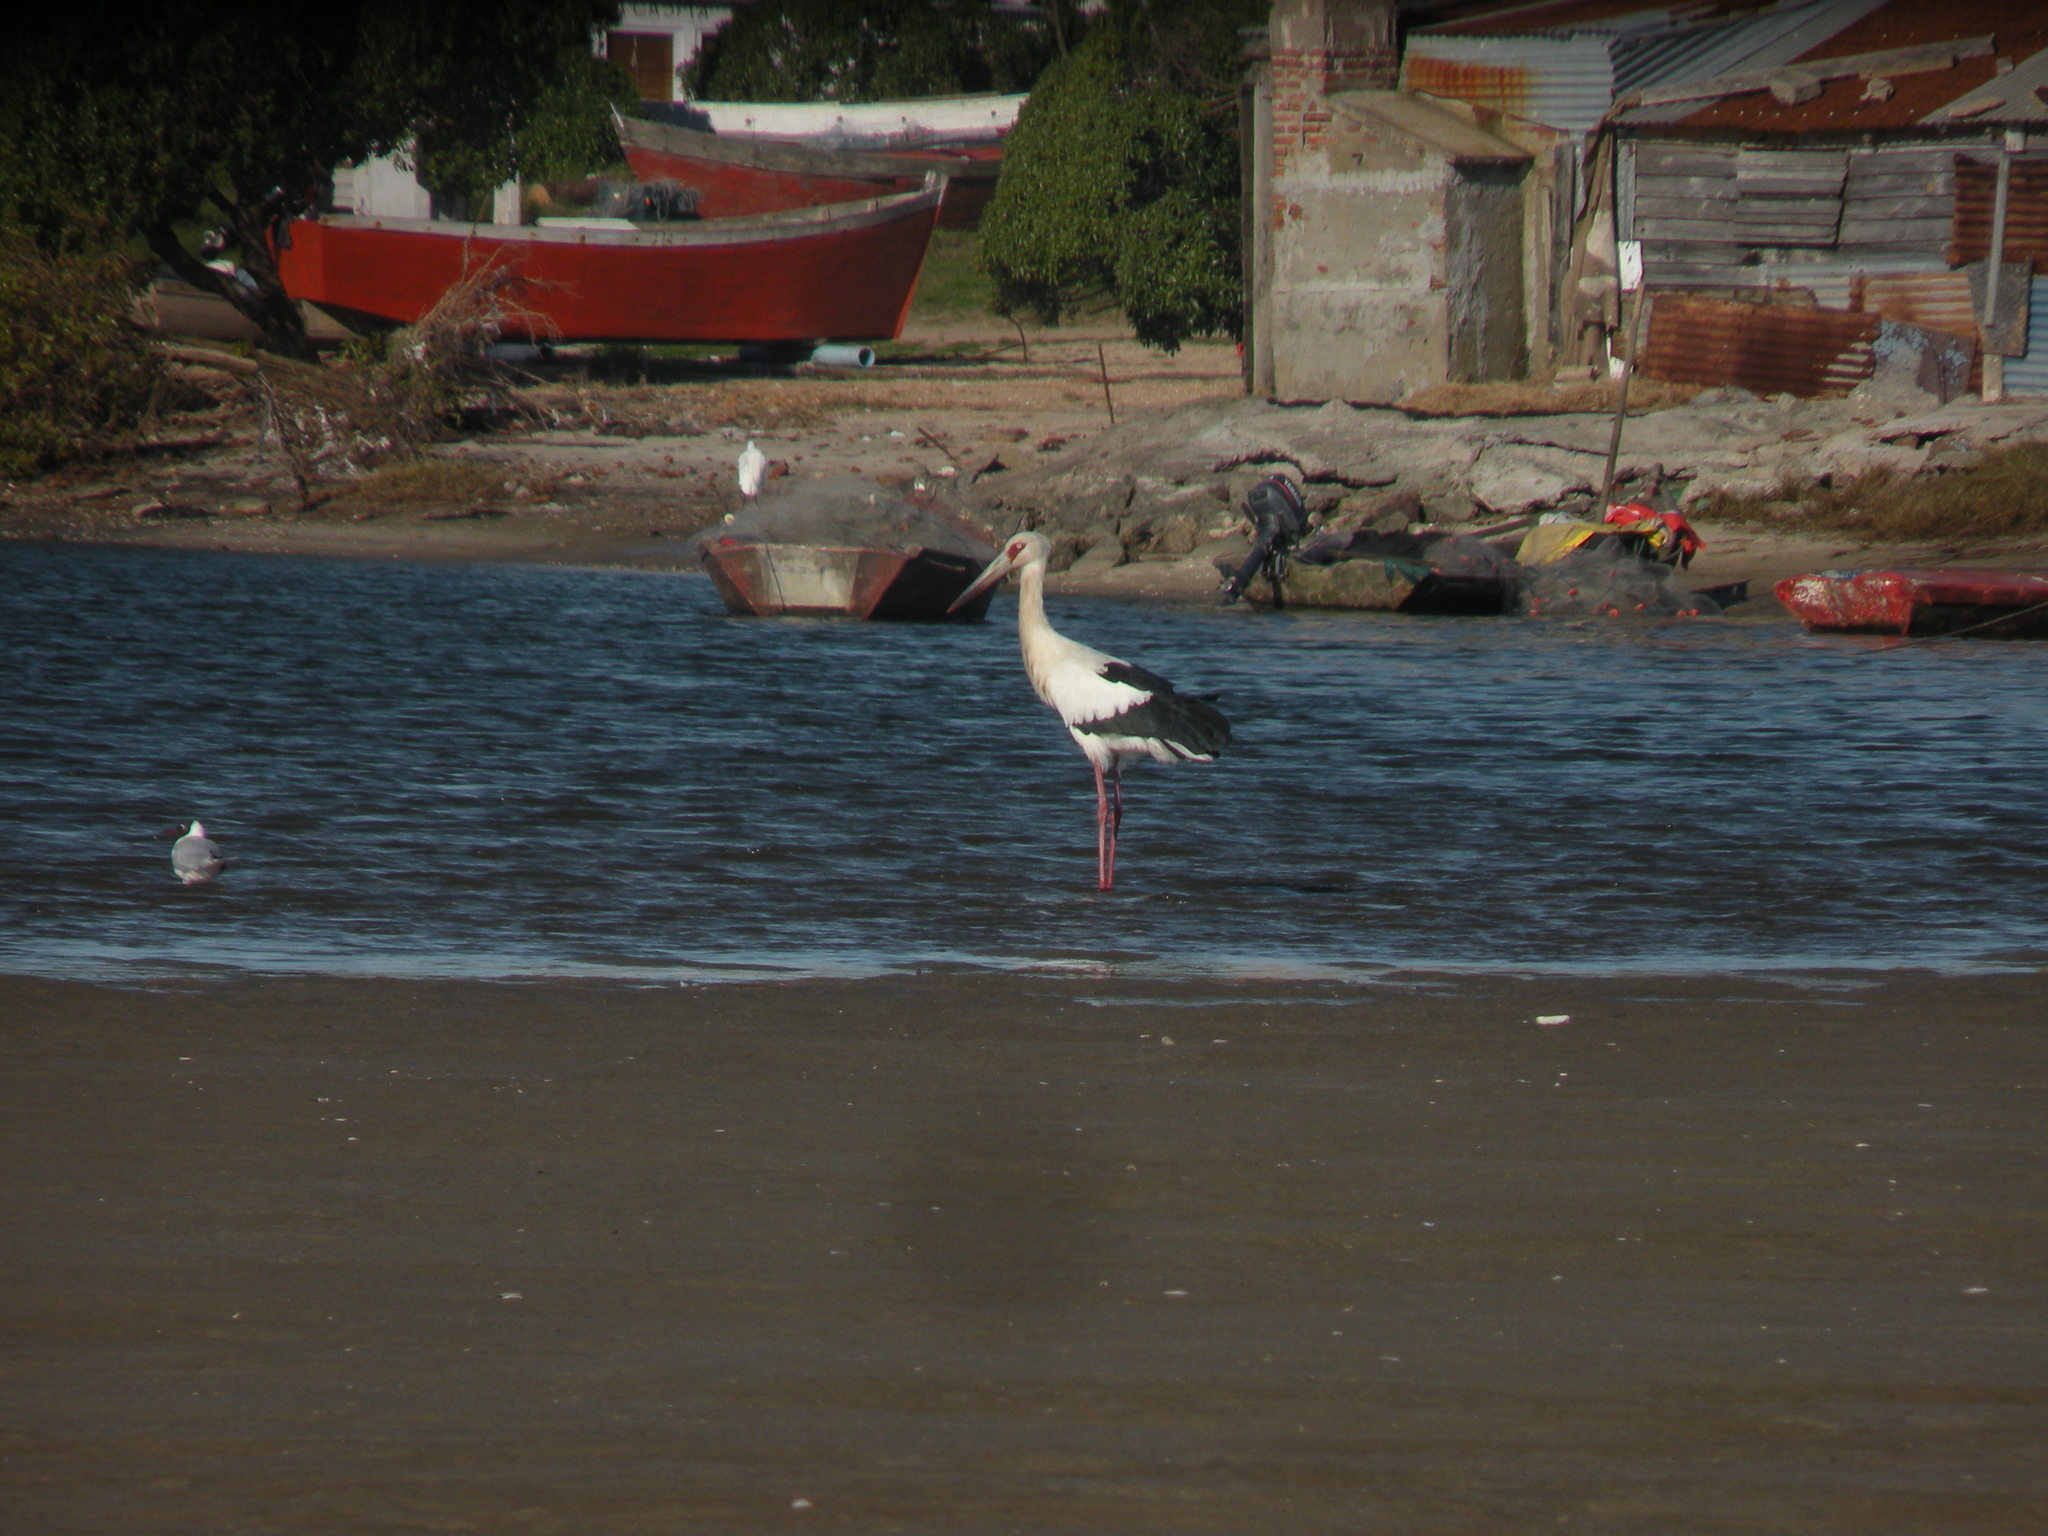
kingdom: Animalia
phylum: Chordata
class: Aves
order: Ciconiiformes
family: Ciconiidae
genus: Ciconia
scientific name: Ciconia maguari
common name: Maguari stork
